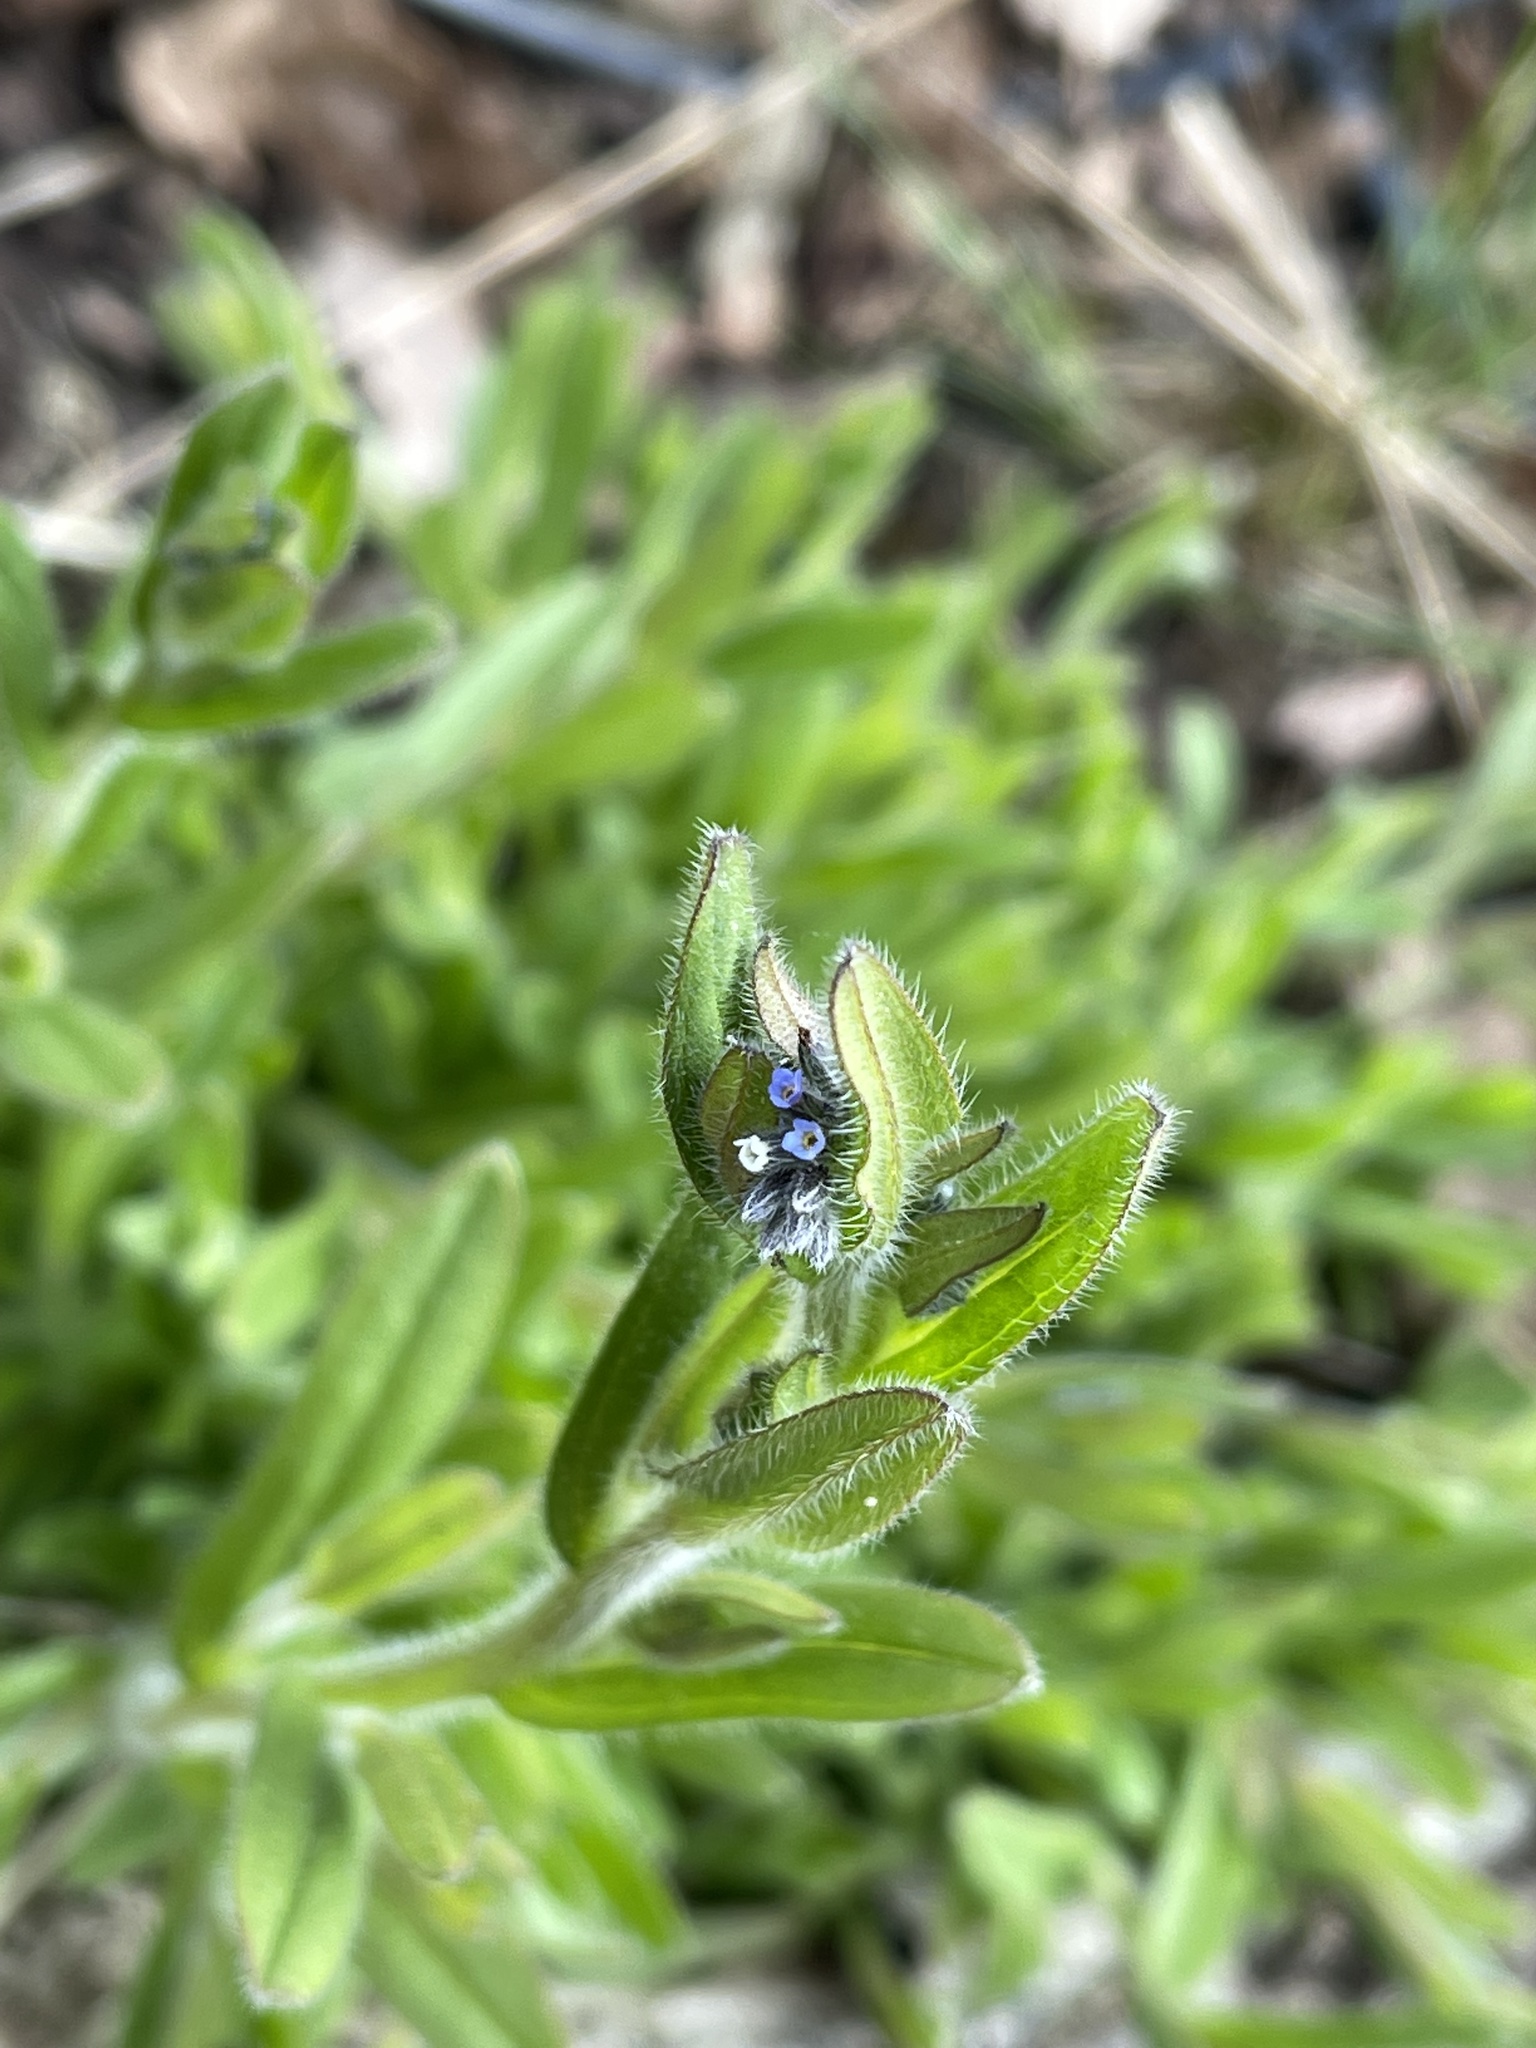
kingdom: Plantae
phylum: Tracheophyta
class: Magnoliopsida
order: Boraginales
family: Boraginaceae
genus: Myosotis
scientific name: Myosotis discolor
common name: Changing forget-me-not
